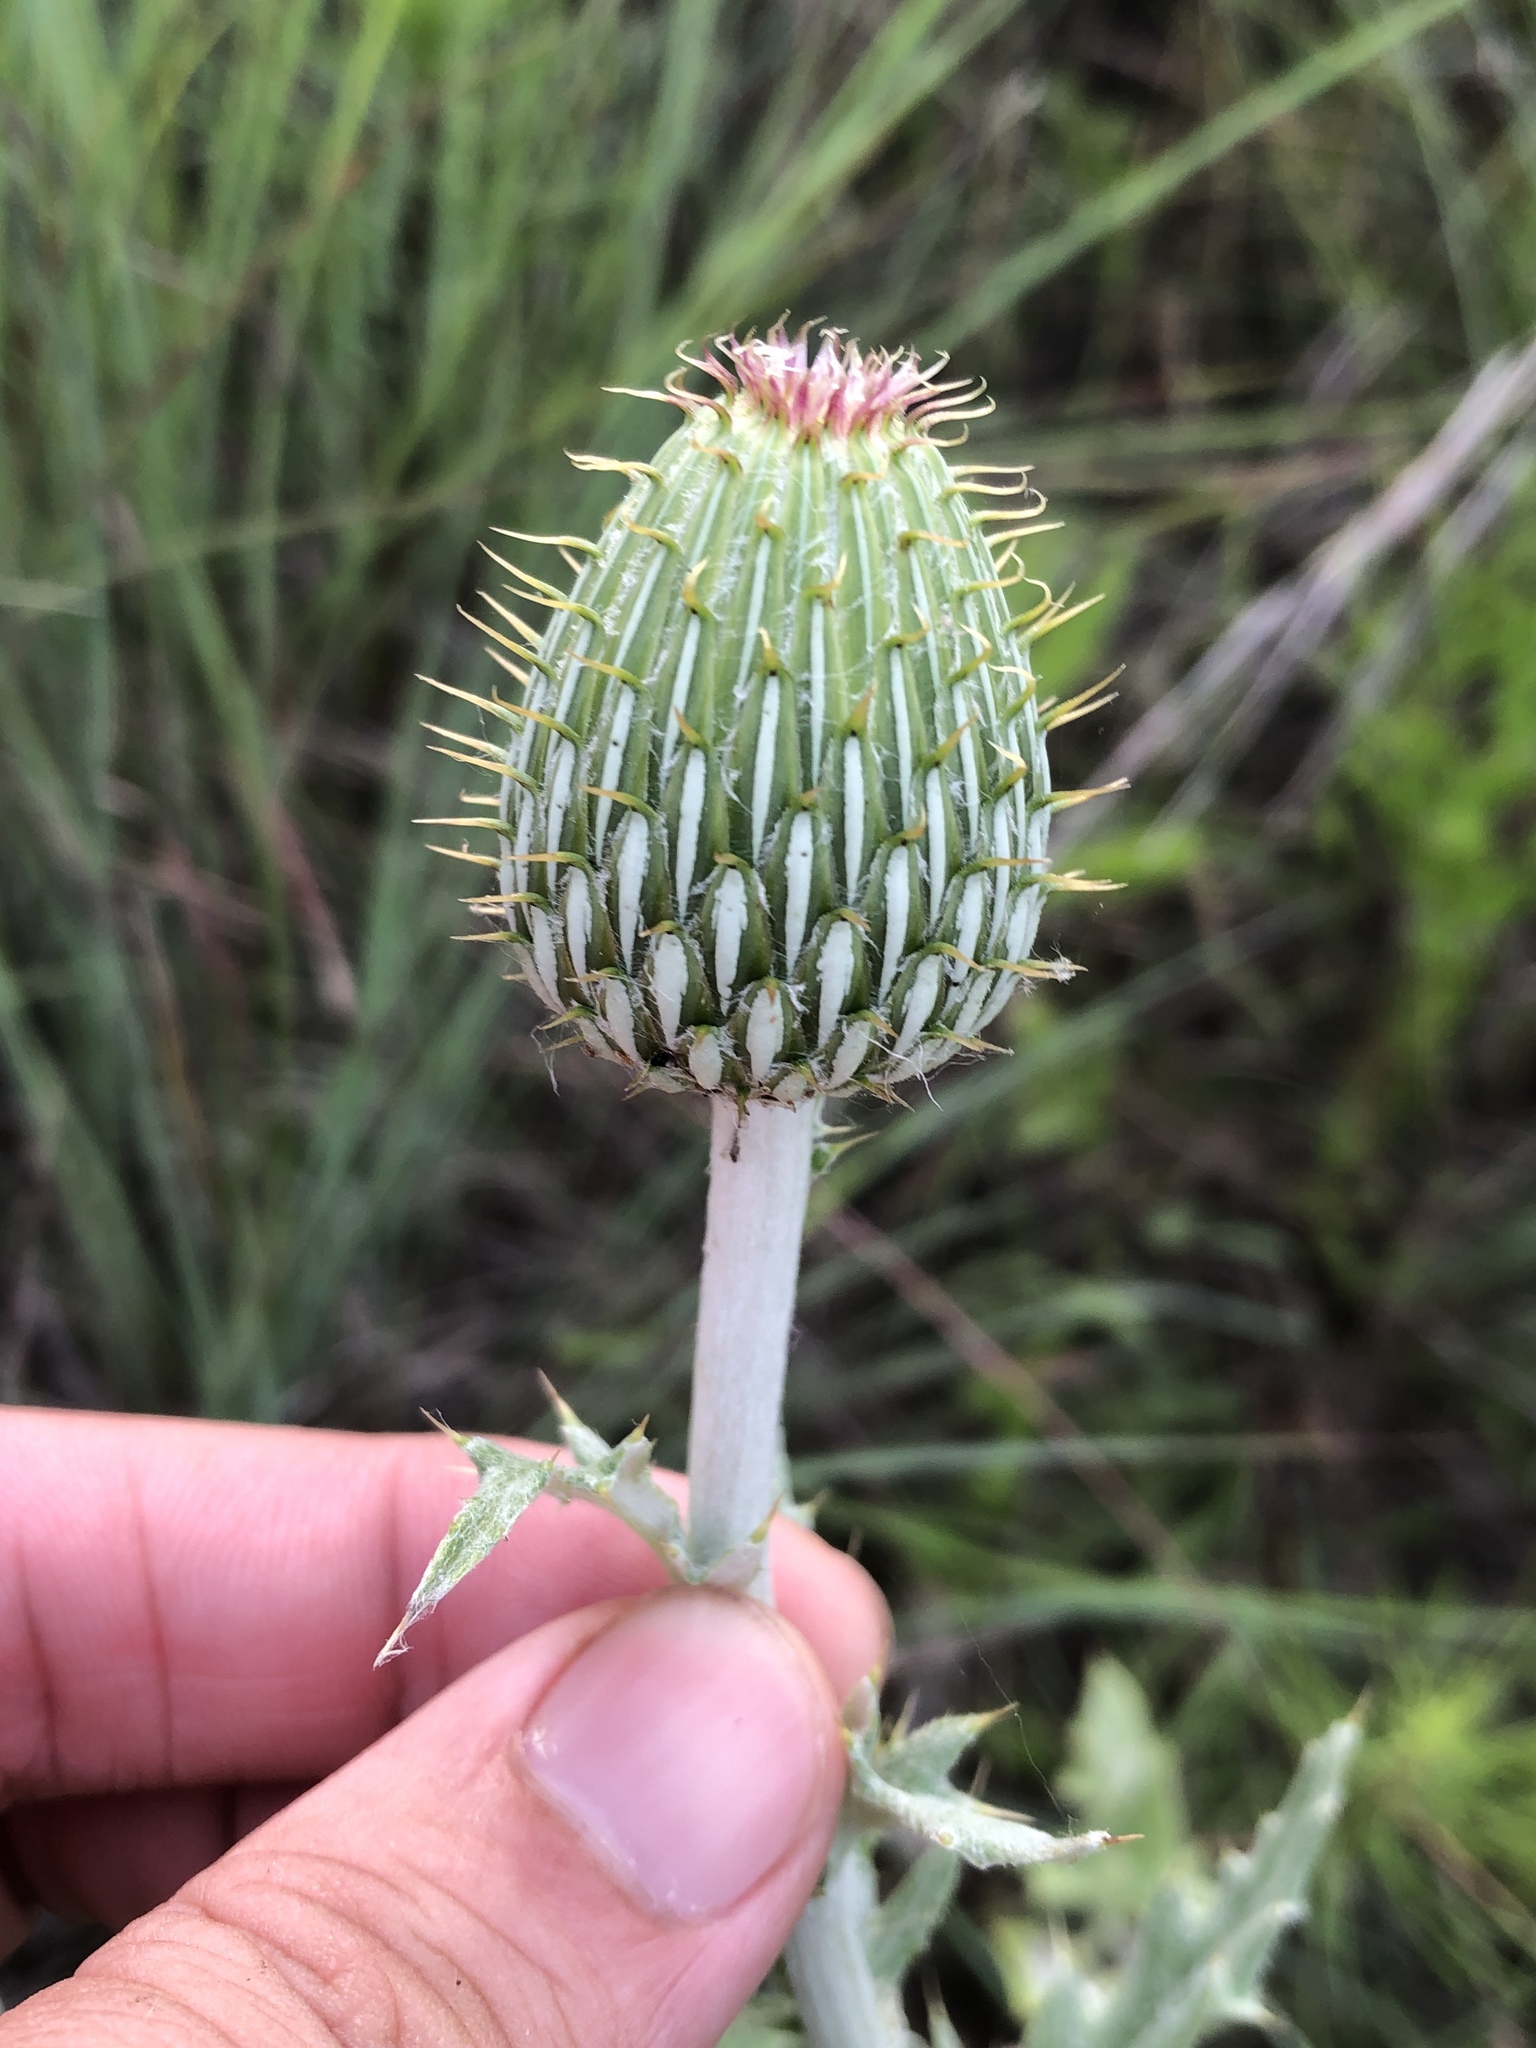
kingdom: Plantae
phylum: Tracheophyta
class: Magnoliopsida
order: Asterales
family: Asteraceae
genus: Cirsium
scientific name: Cirsium undulatum
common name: Pasture thistle
